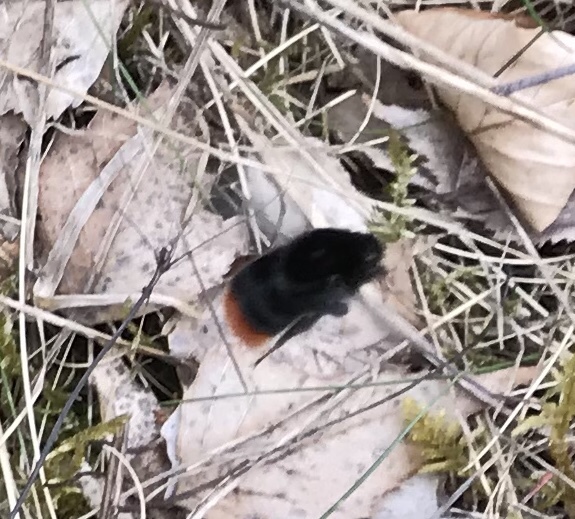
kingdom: Animalia
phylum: Arthropoda
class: Insecta
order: Hymenoptera
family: Apidae
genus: Bombus
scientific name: Bombus lapidarius
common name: Large red-tailed humble-bee
